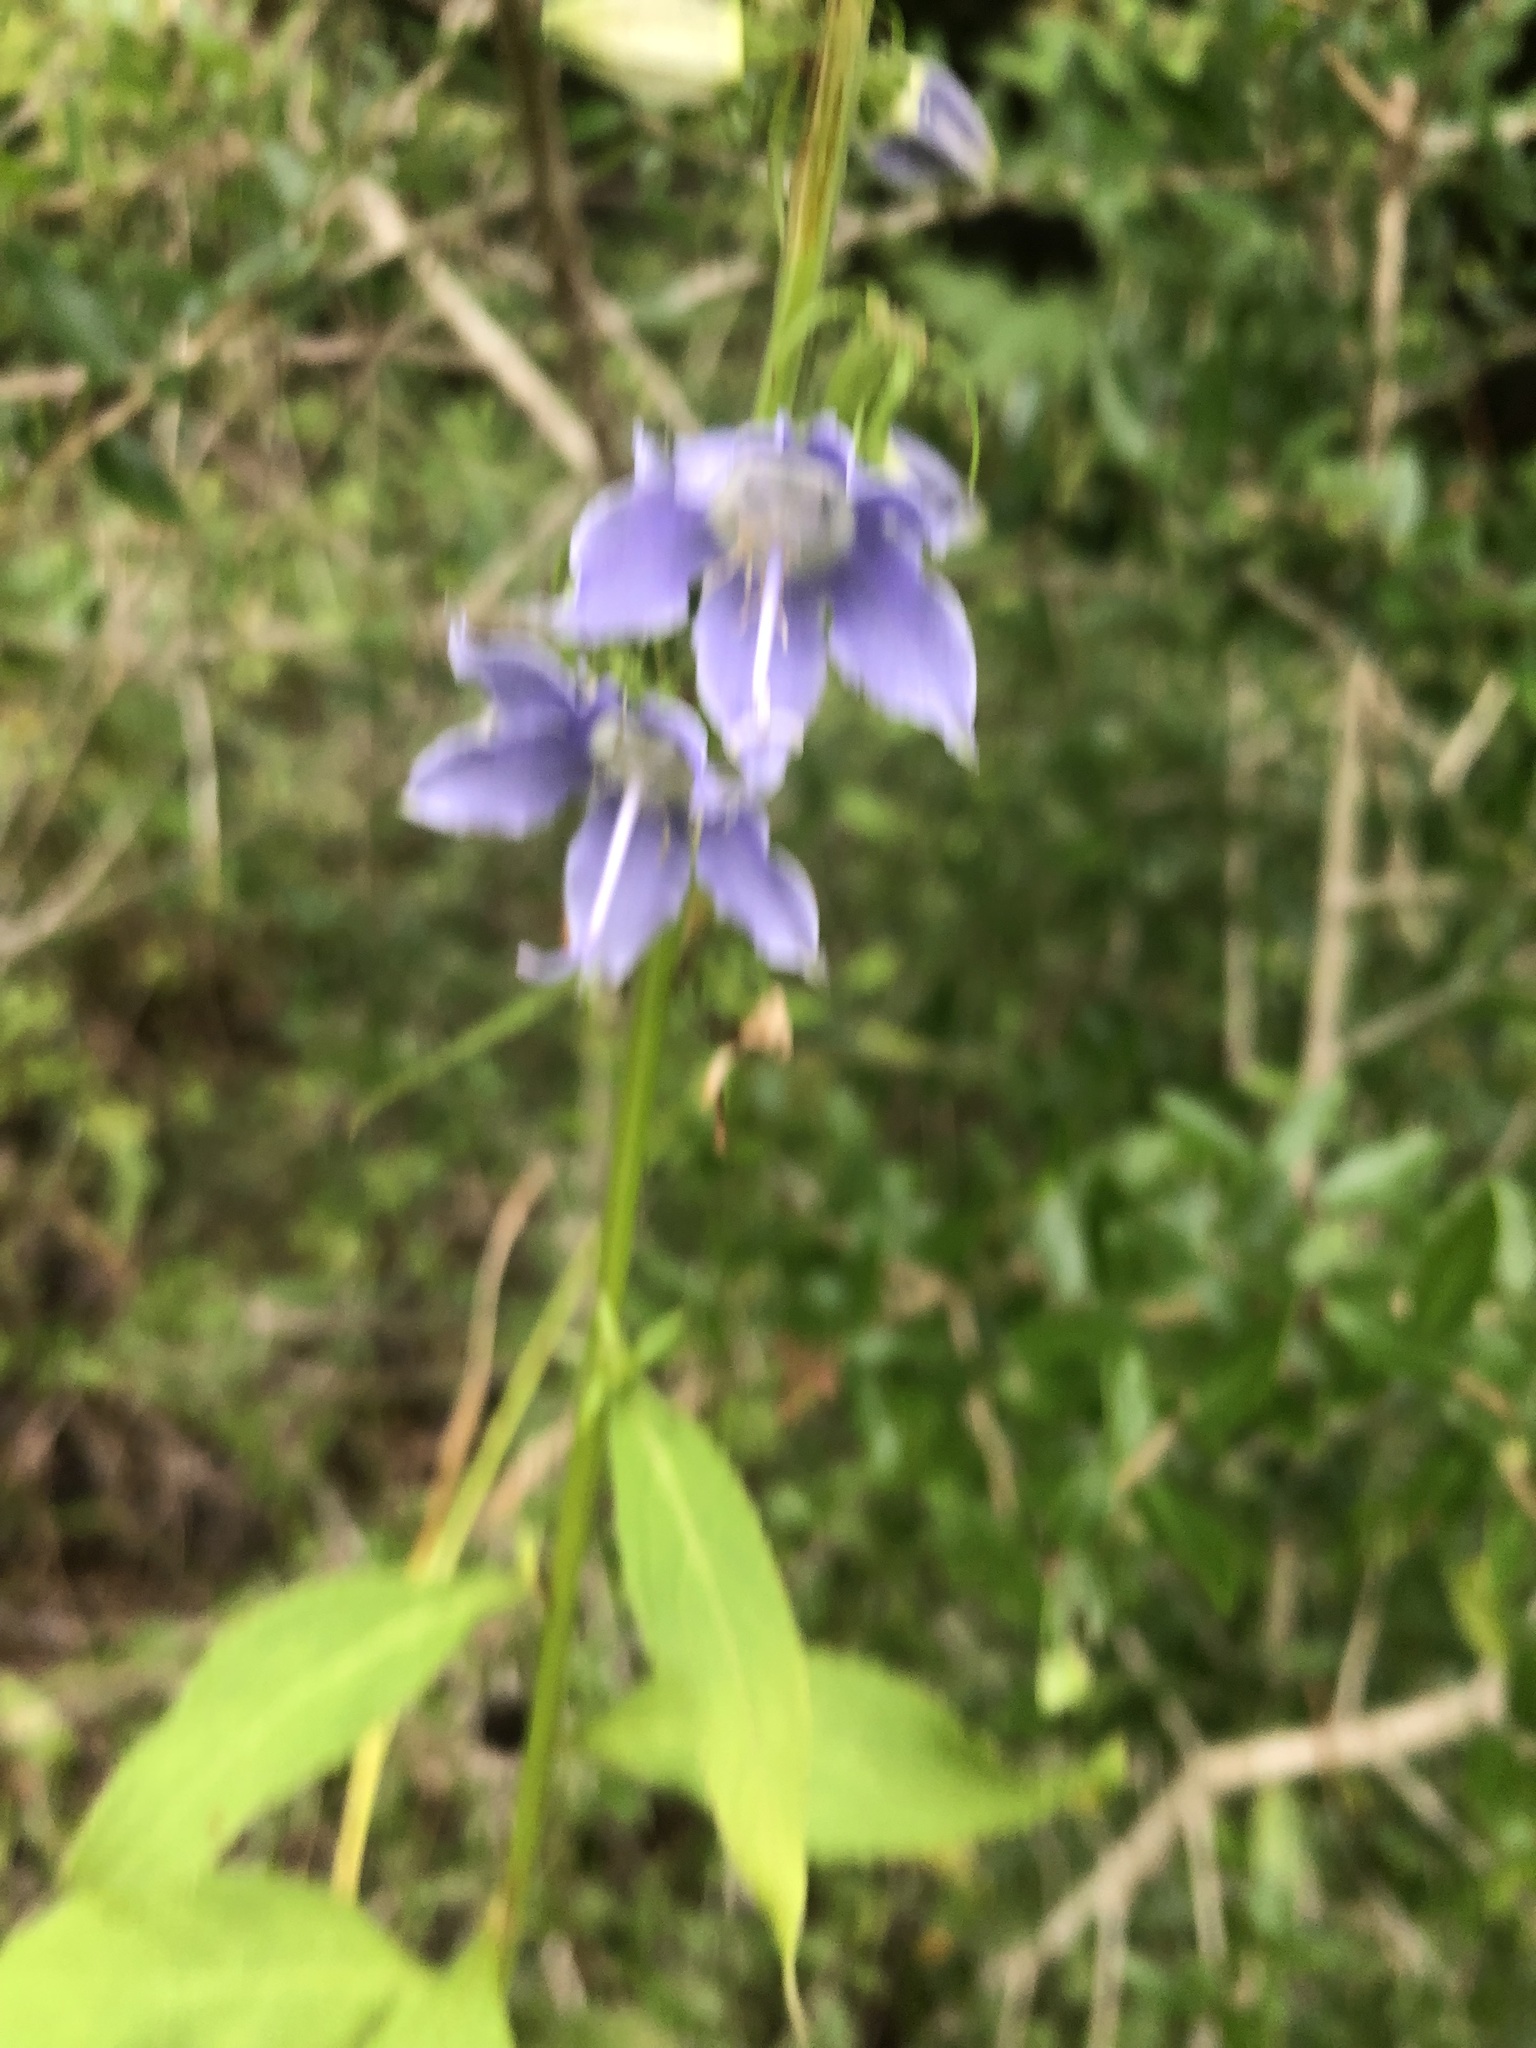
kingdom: Plantae
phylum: Tracheophyta
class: Magnoliopsida
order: Asterales
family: Campanulaceae
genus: Campanulastrum
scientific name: Campanulastrum americanum
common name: American bellflower
